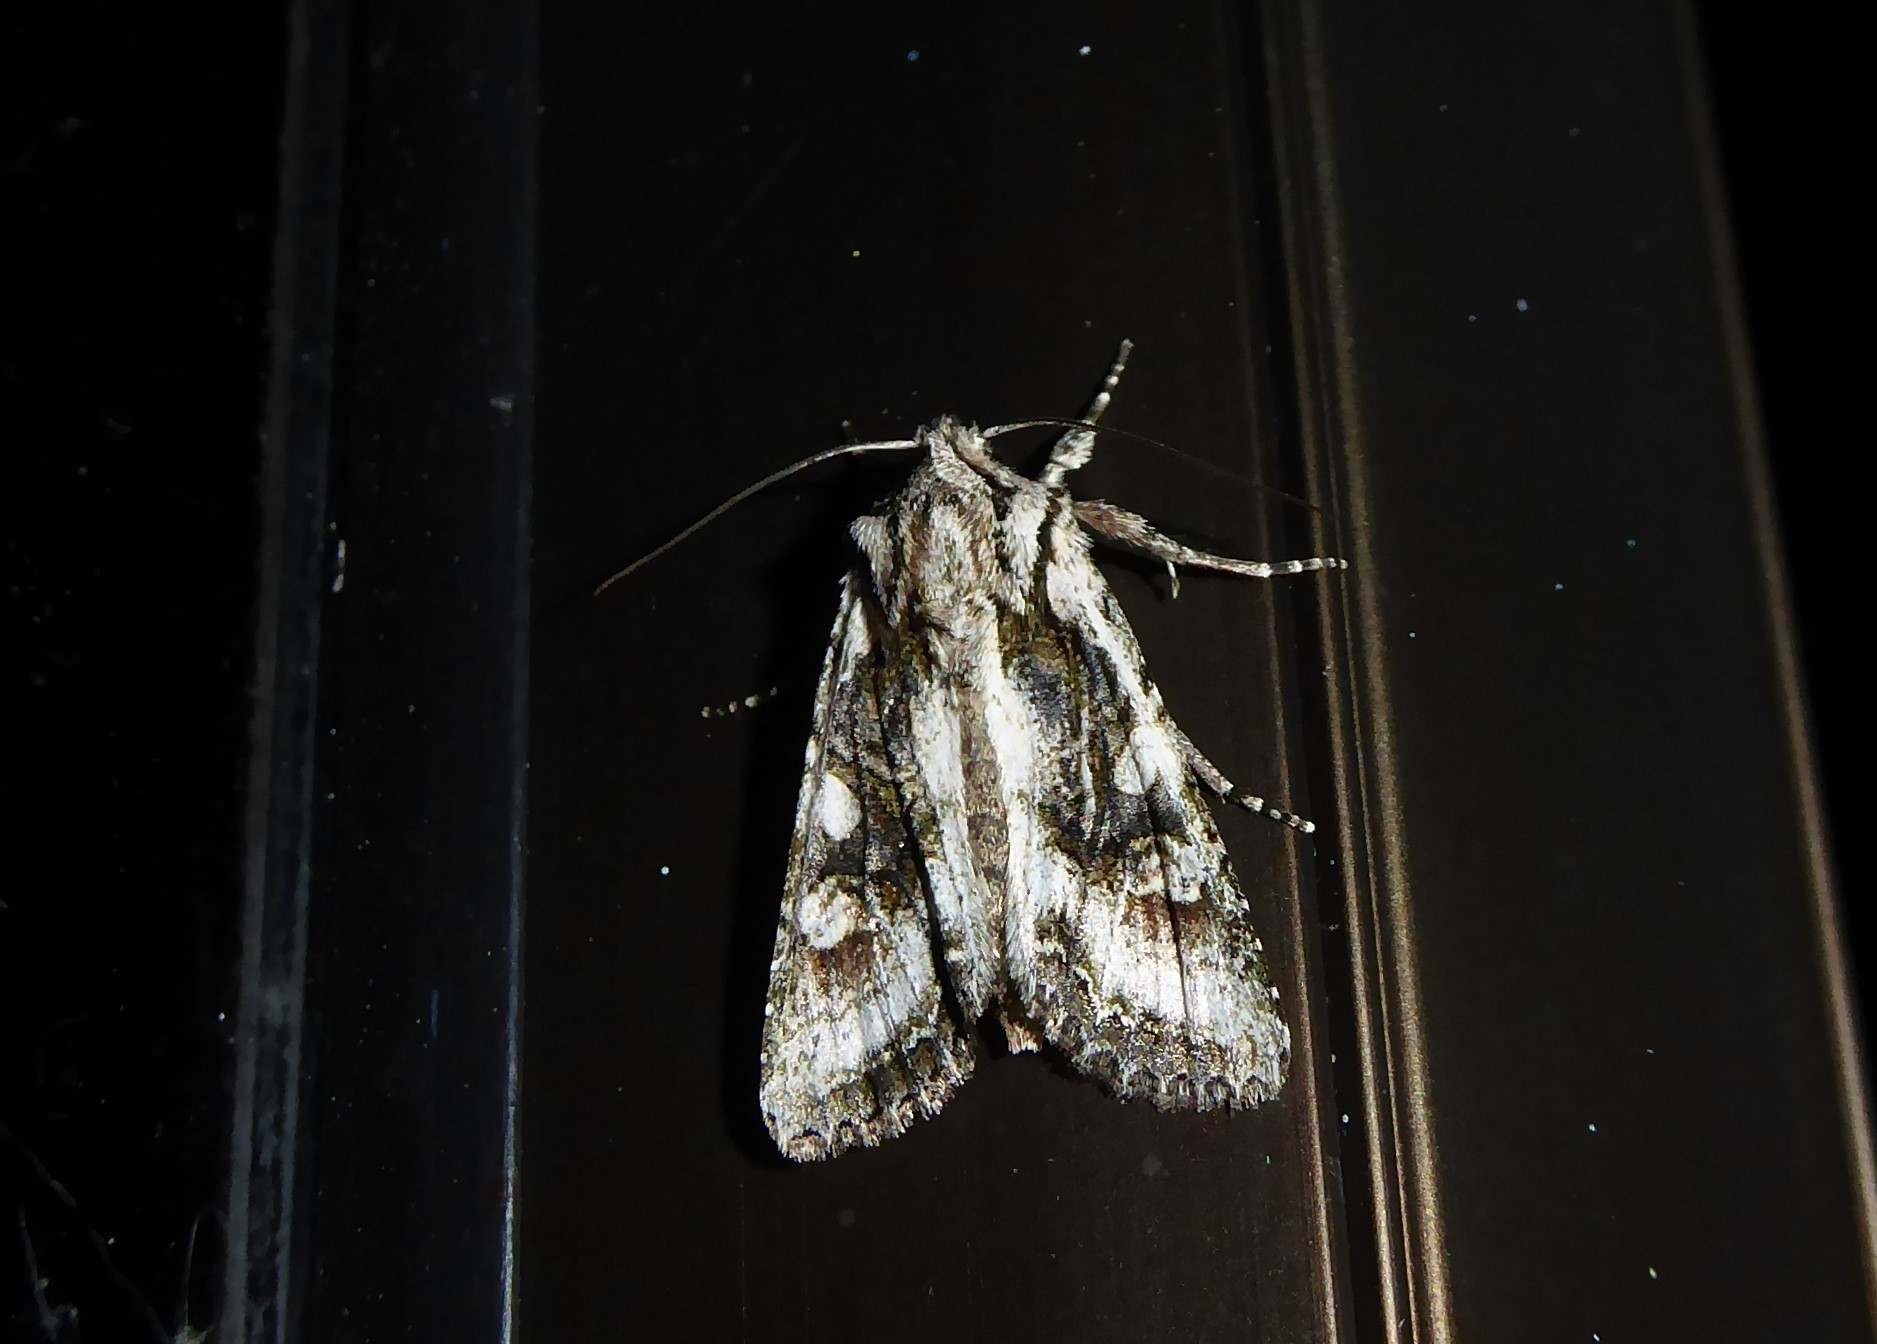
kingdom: Animalia
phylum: Arthropoda
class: Insecta
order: Lepidoptera
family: Noctuidae
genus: Ichneutica
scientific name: Ichneutica mutans
